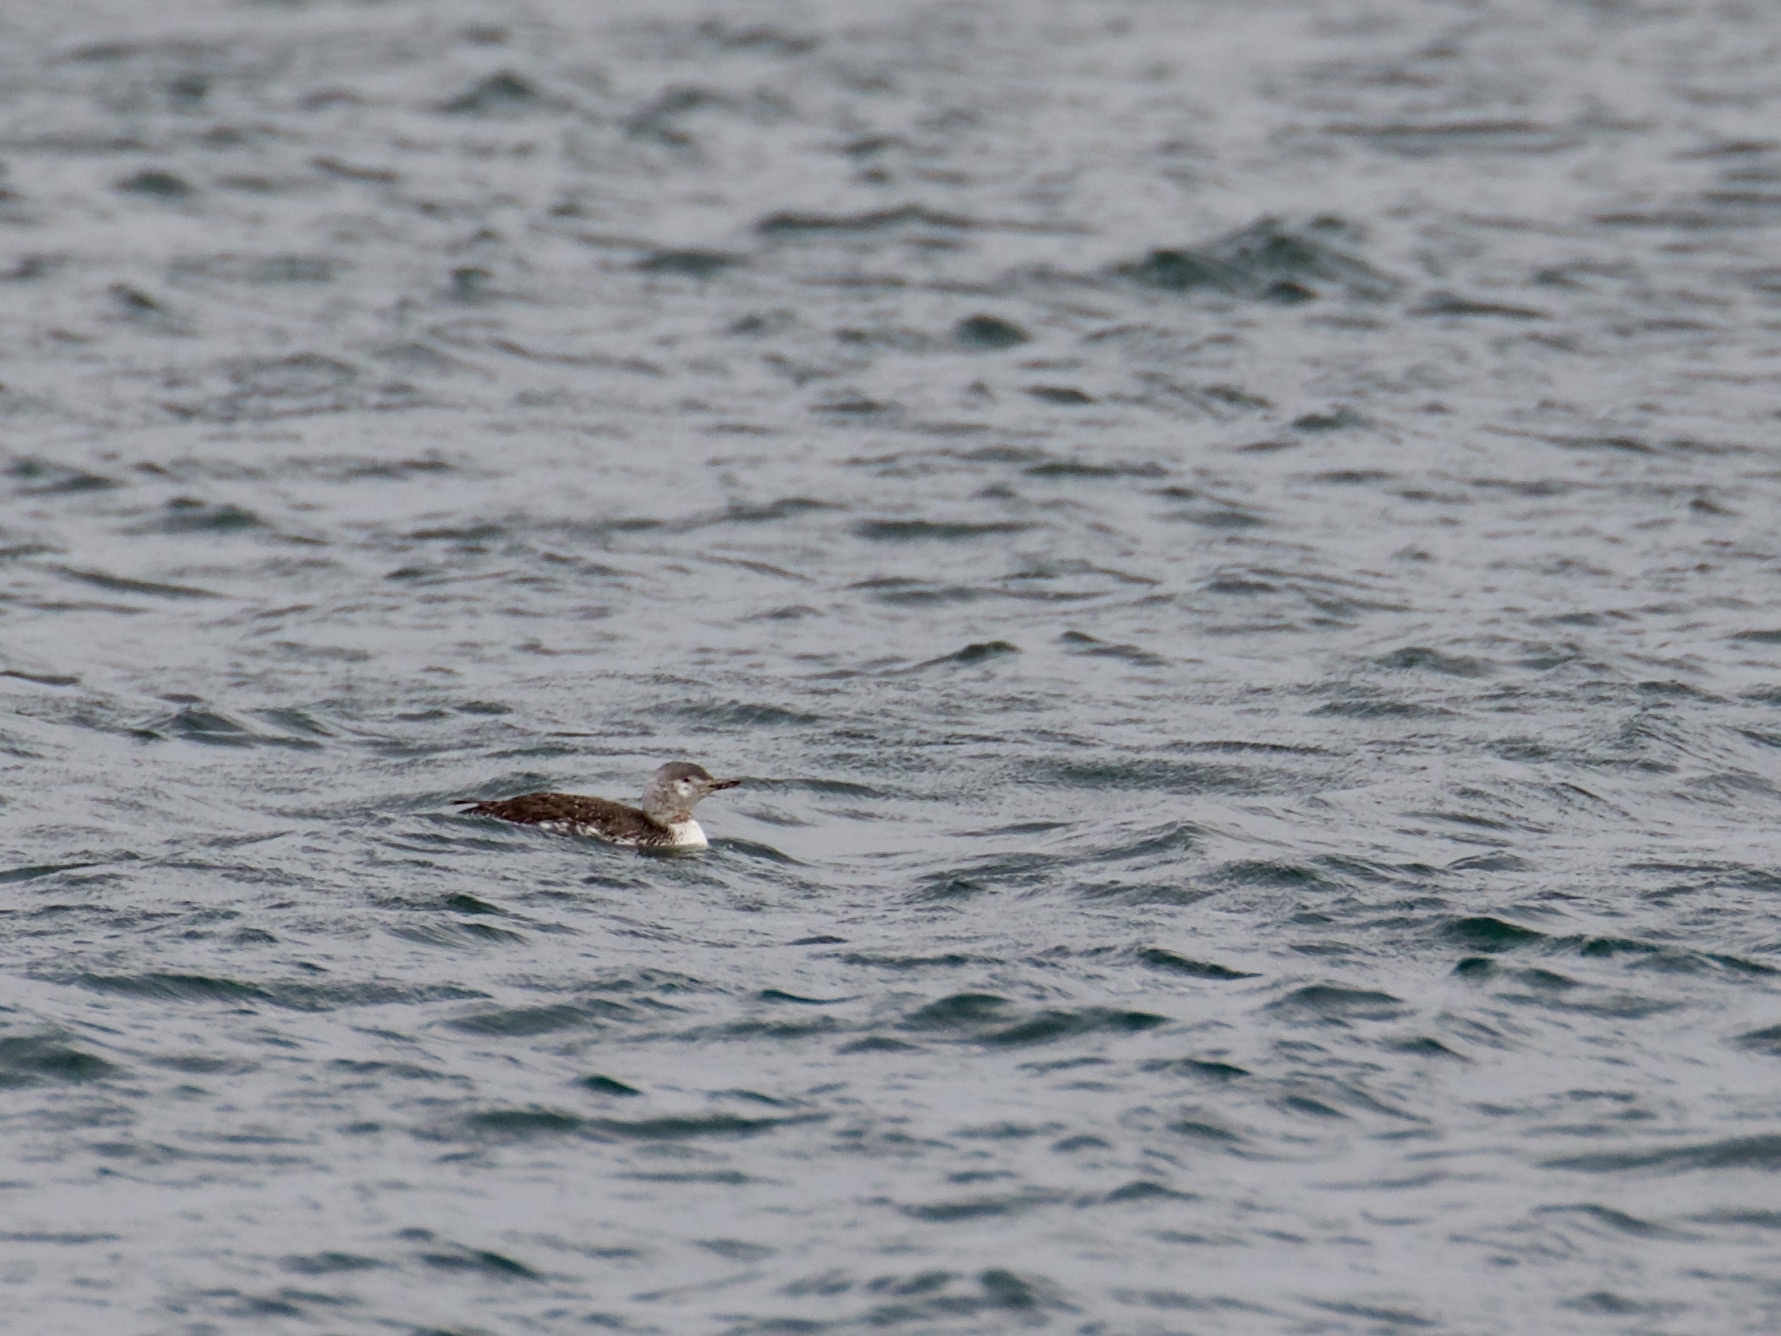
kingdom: Animalia
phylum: Chordata
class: Aves
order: Gaviiformes
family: Gaviidae
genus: Gavia
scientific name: Gavia stellata
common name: Red-throated loon
